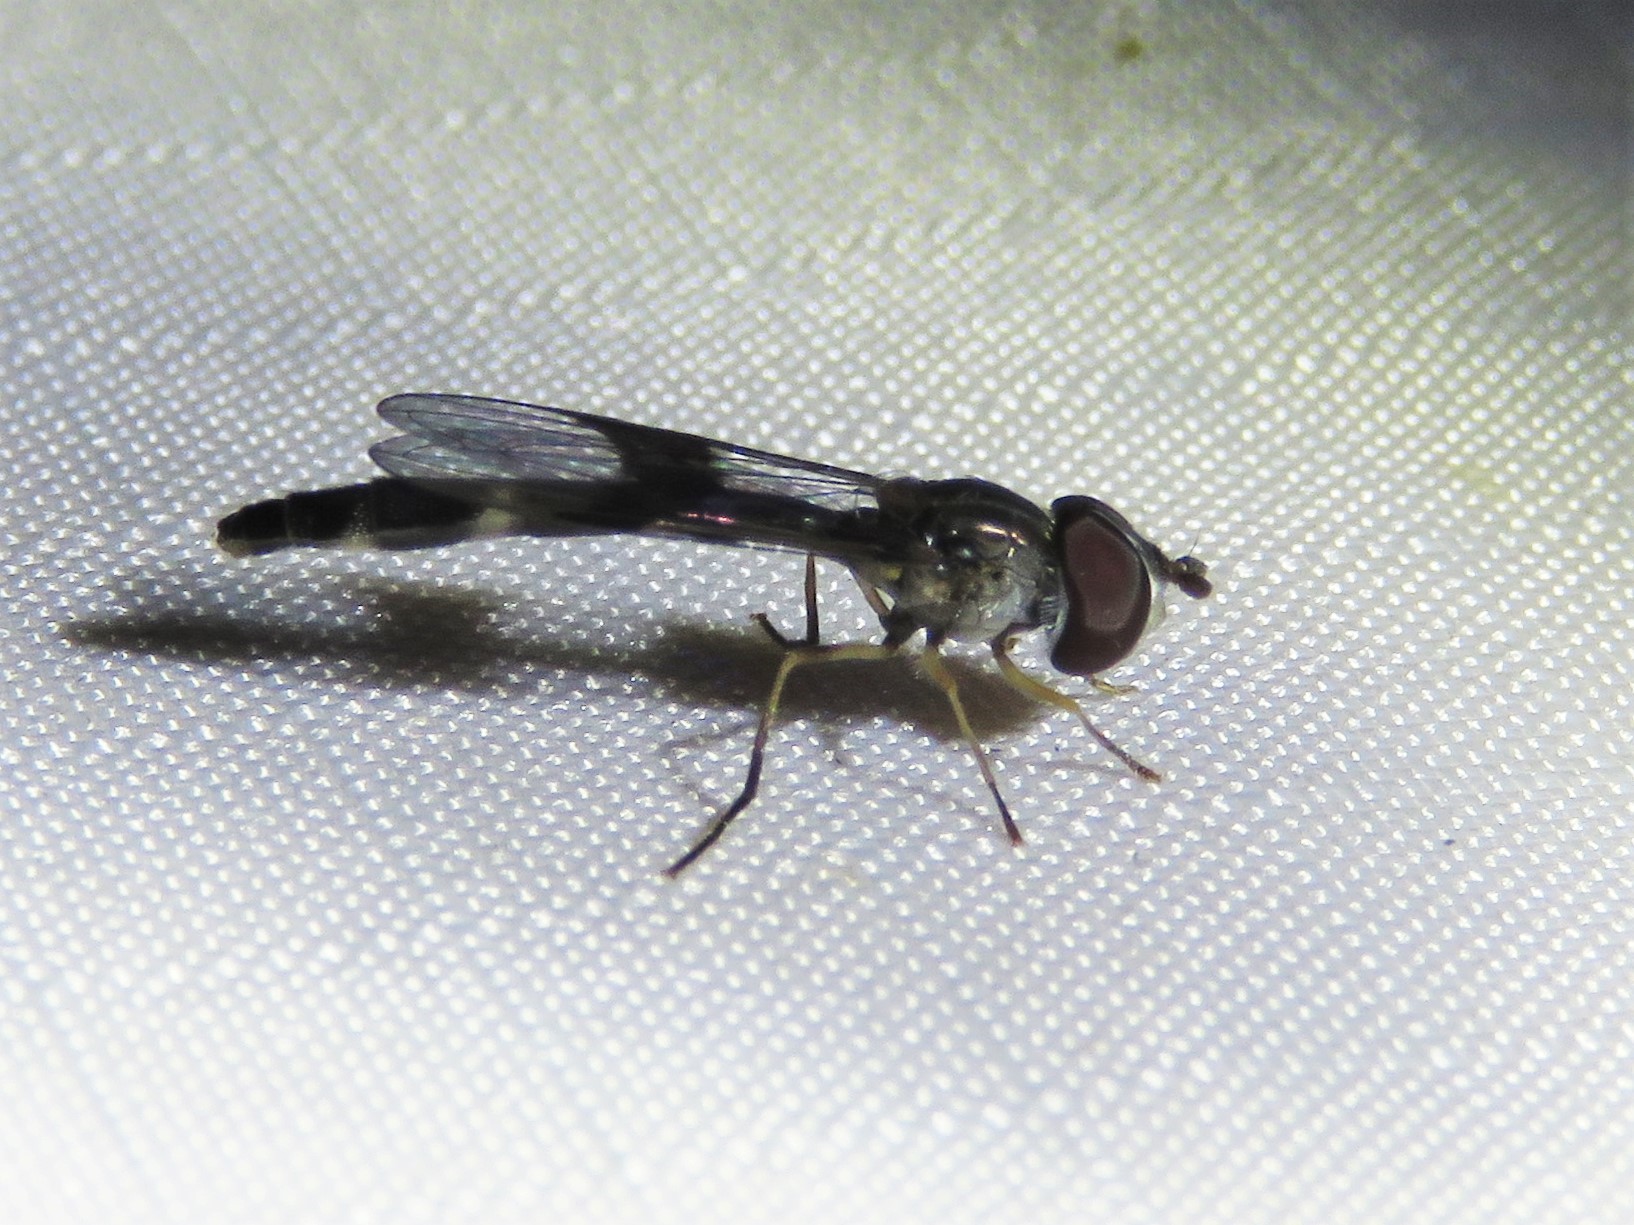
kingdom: Animalia
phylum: Arthropoda
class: Insecta
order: Diptera
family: Syrphidae
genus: Hypocritanus
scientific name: Hypocritanus fascipennis
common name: Eastern band-winged hover fly
